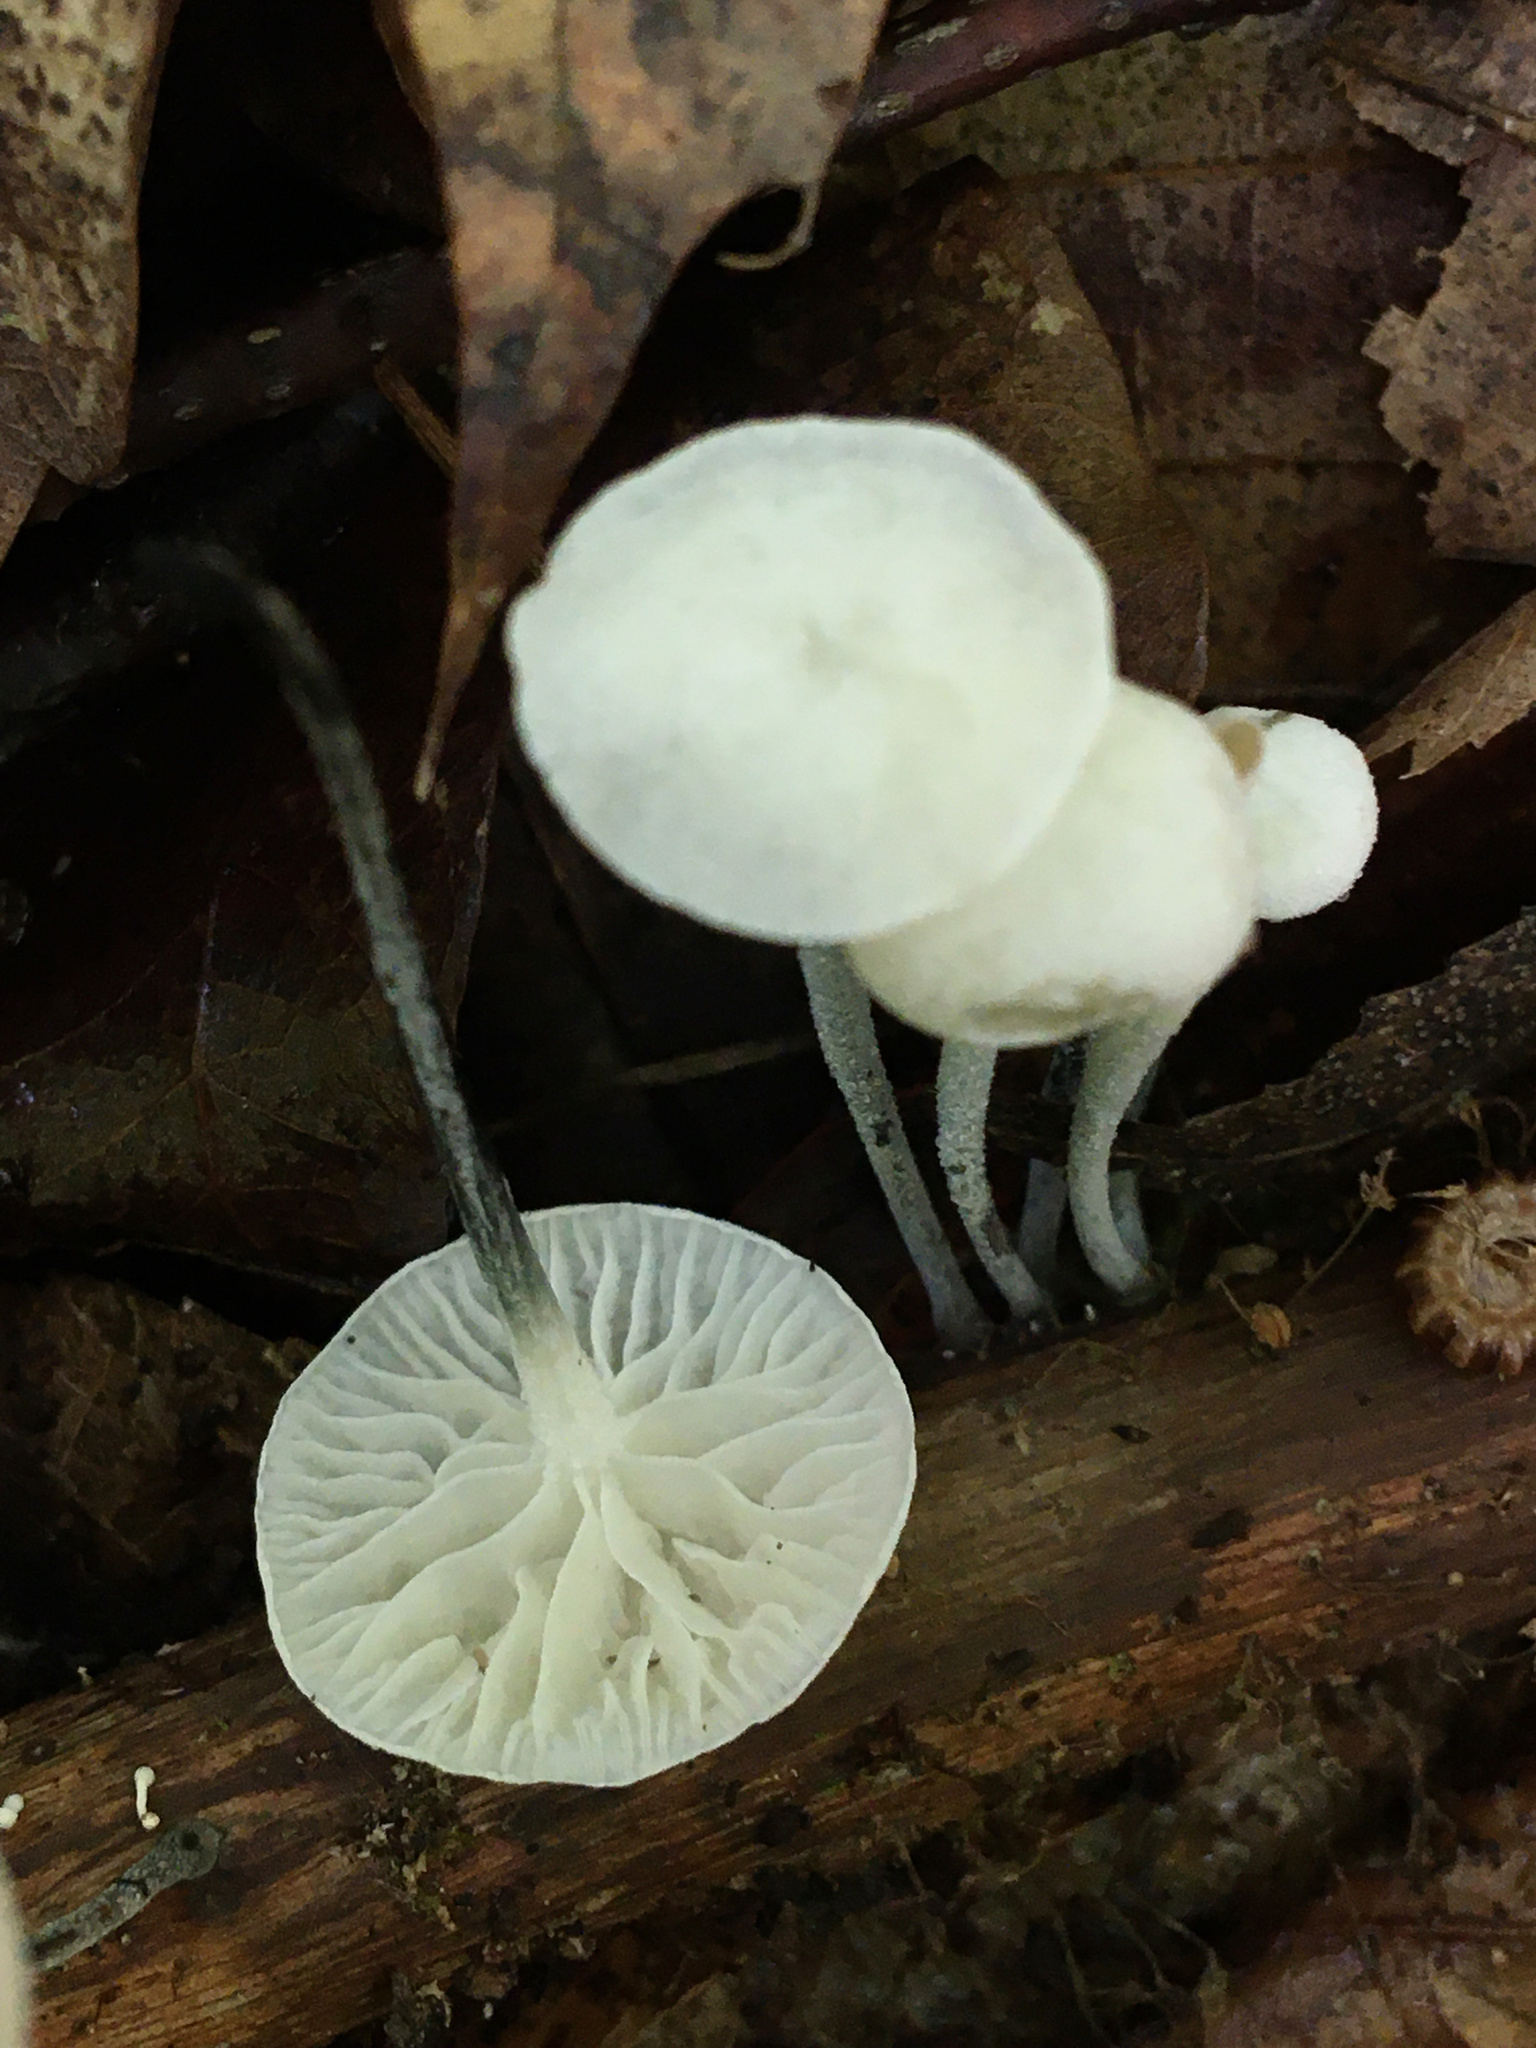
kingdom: Fungi
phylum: Basidiomycota
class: Agaricomycetes
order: Agaricales
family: Marasmiaceae
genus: Tetrapyrgos
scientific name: Tetrapyrgos nigripes
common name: Black-stalked marasmius
